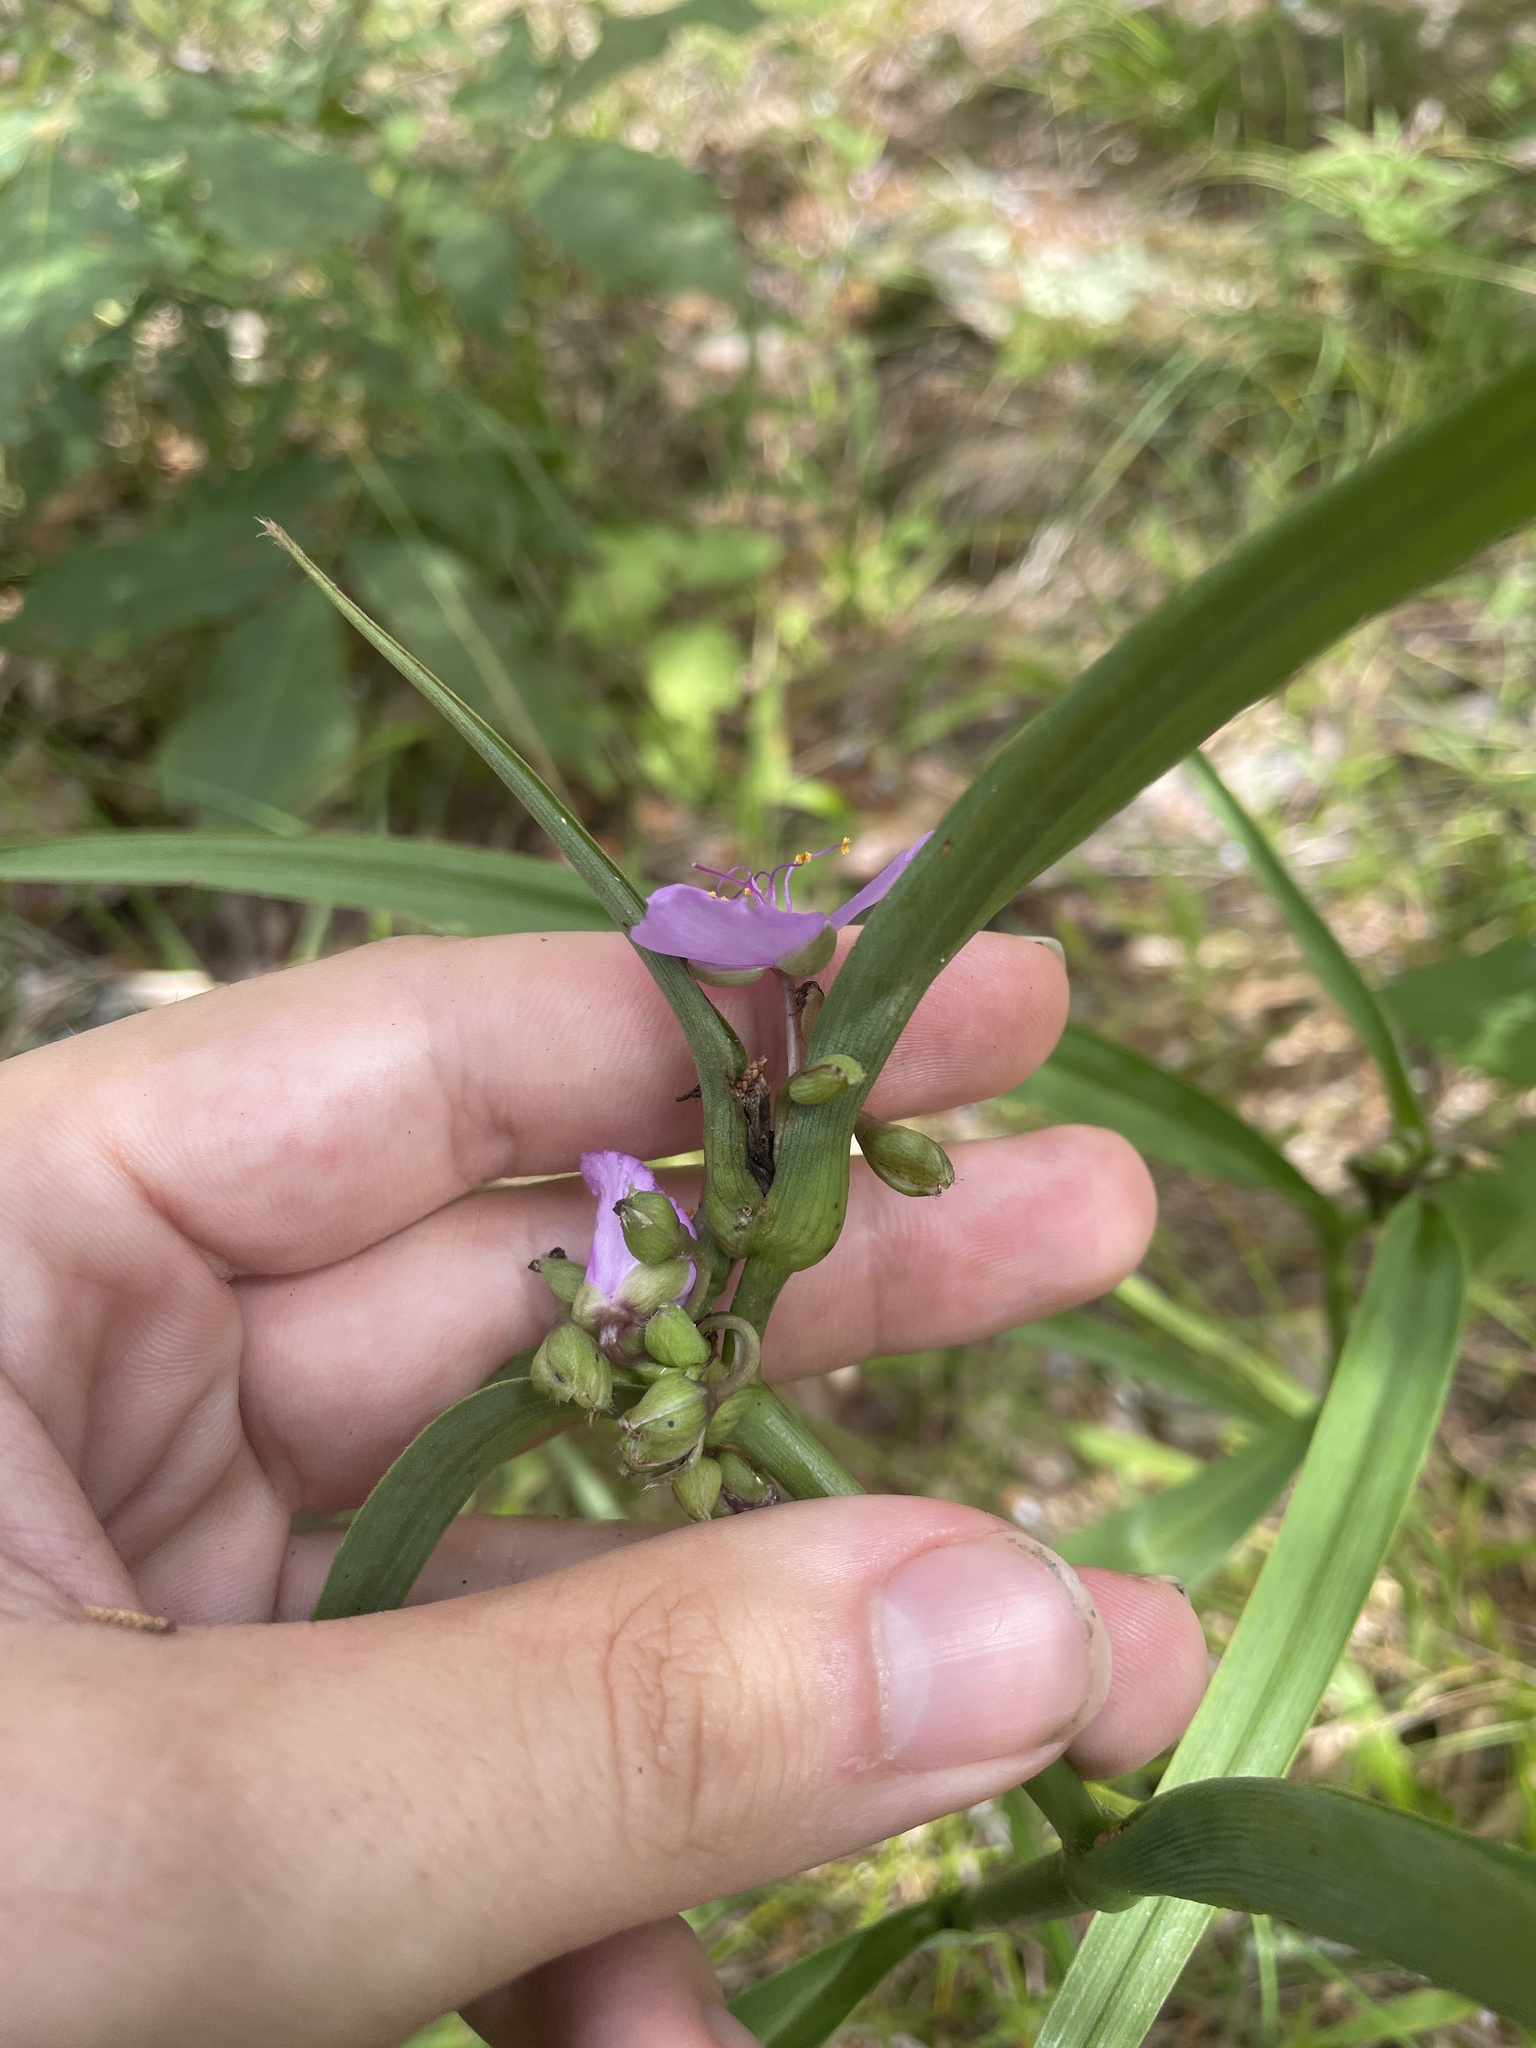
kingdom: Plantae
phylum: Tracheophyta
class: Liliopsida
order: Commelinales
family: Commelinaceae
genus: Tradescantia
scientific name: Tradescantia ohiensis
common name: Ohio spiderwort
